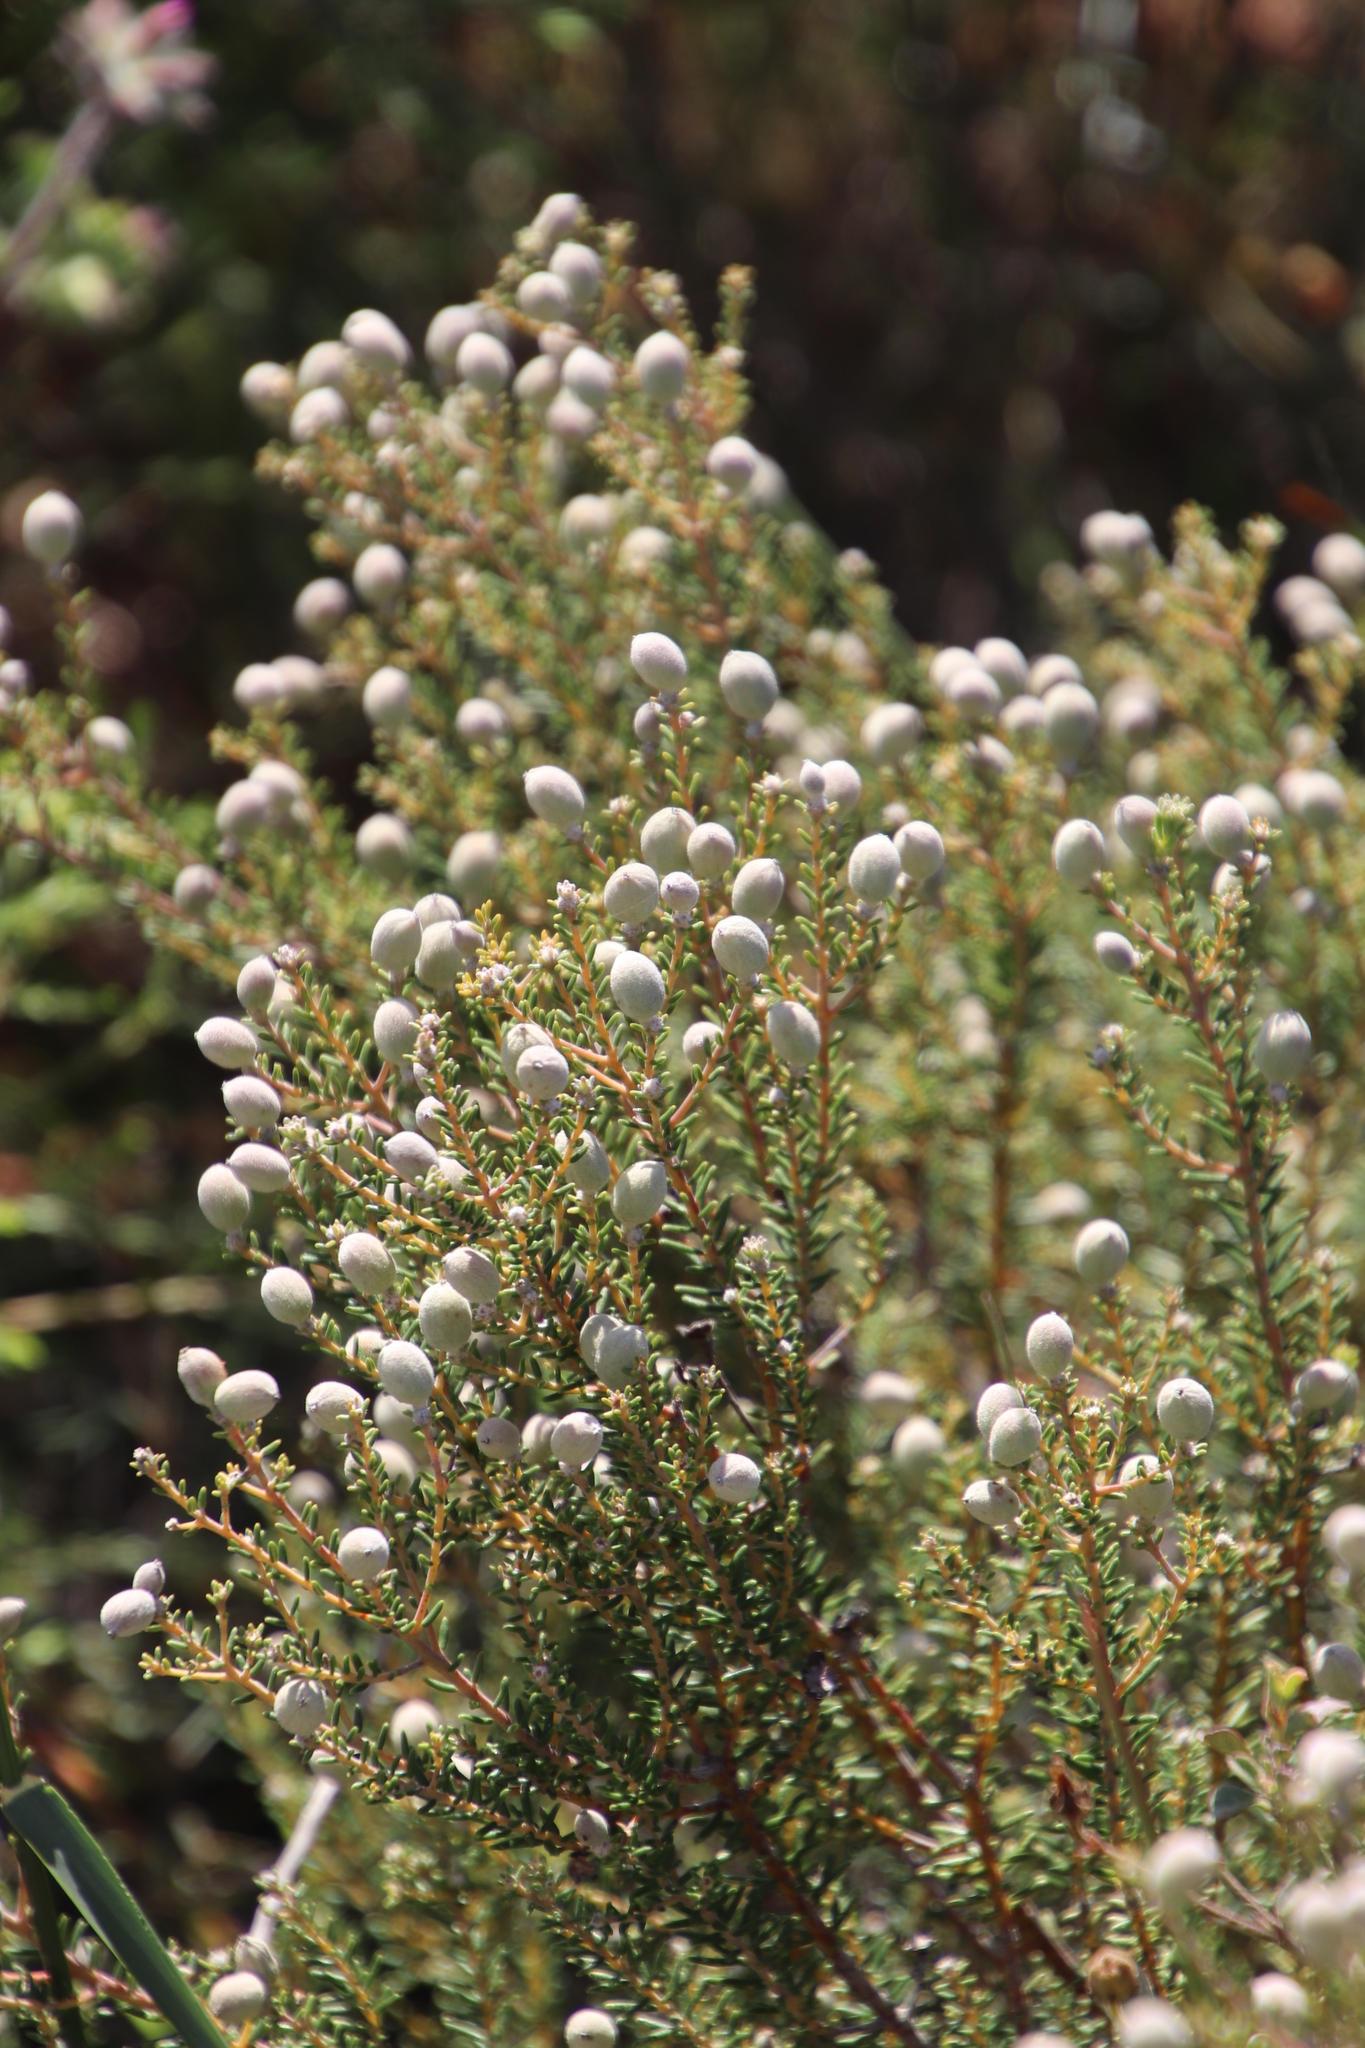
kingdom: Plantae
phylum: Tracheophyta
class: Magnoliopsida
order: Rosales
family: Rhamnaceae
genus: Phylica
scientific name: Phylica cephalantha
